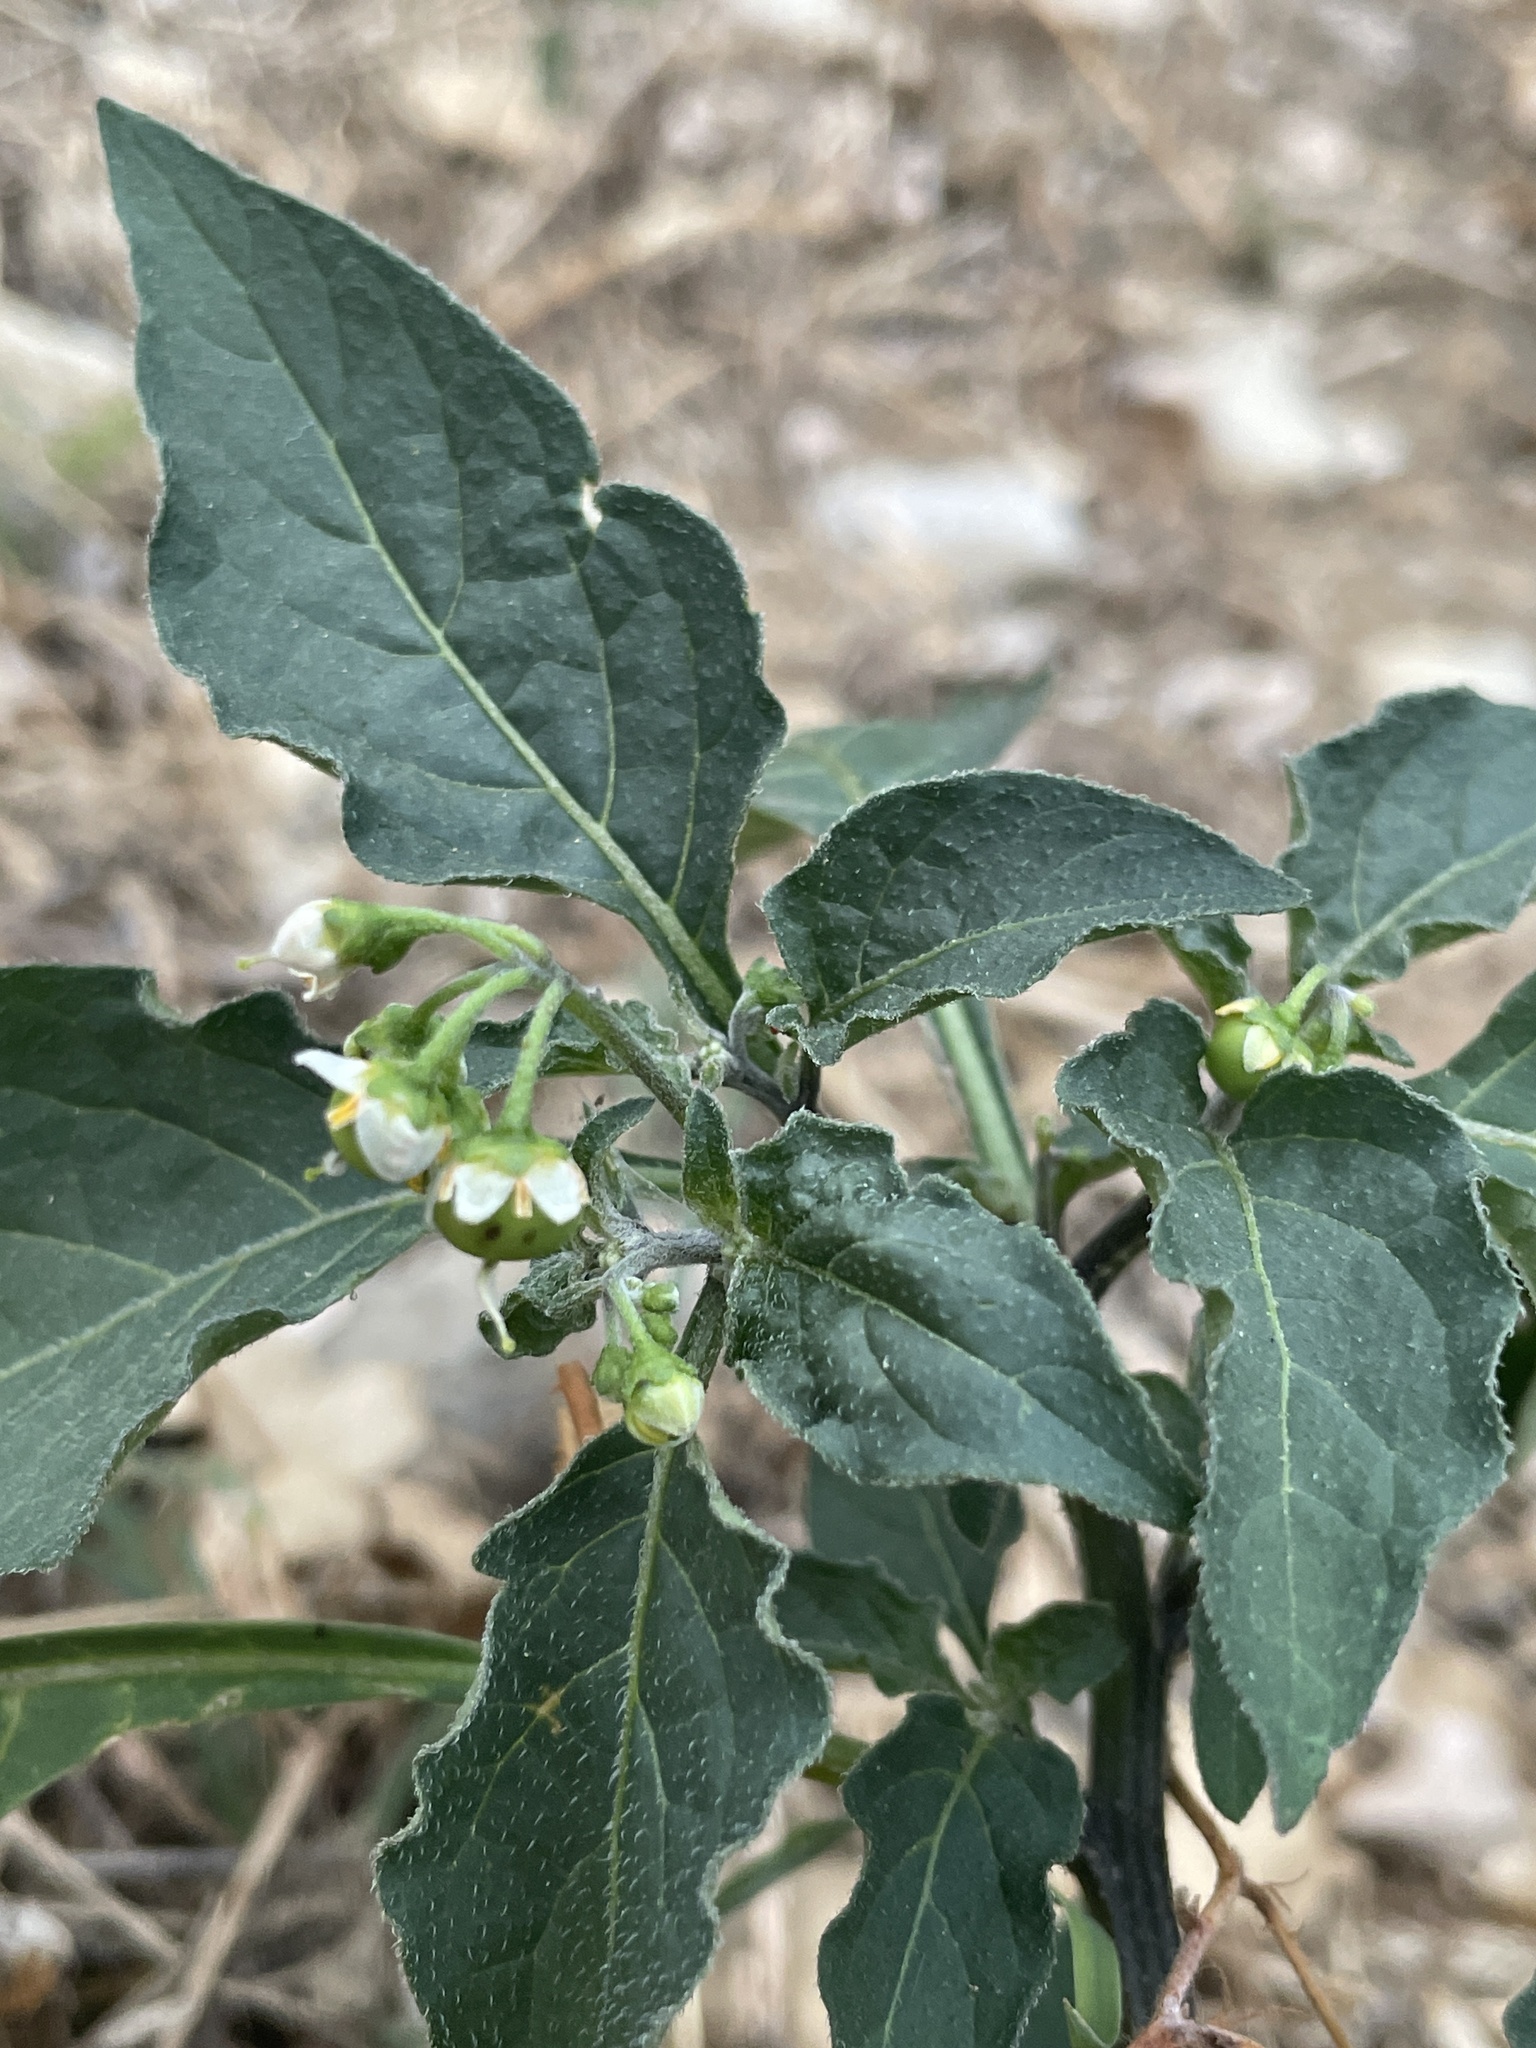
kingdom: Plantae
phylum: Tracheophyta
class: Magnoliopsida
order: Solanales
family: Solanaceae
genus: Solanum
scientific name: Solanum nigrum
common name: Black nightshade
